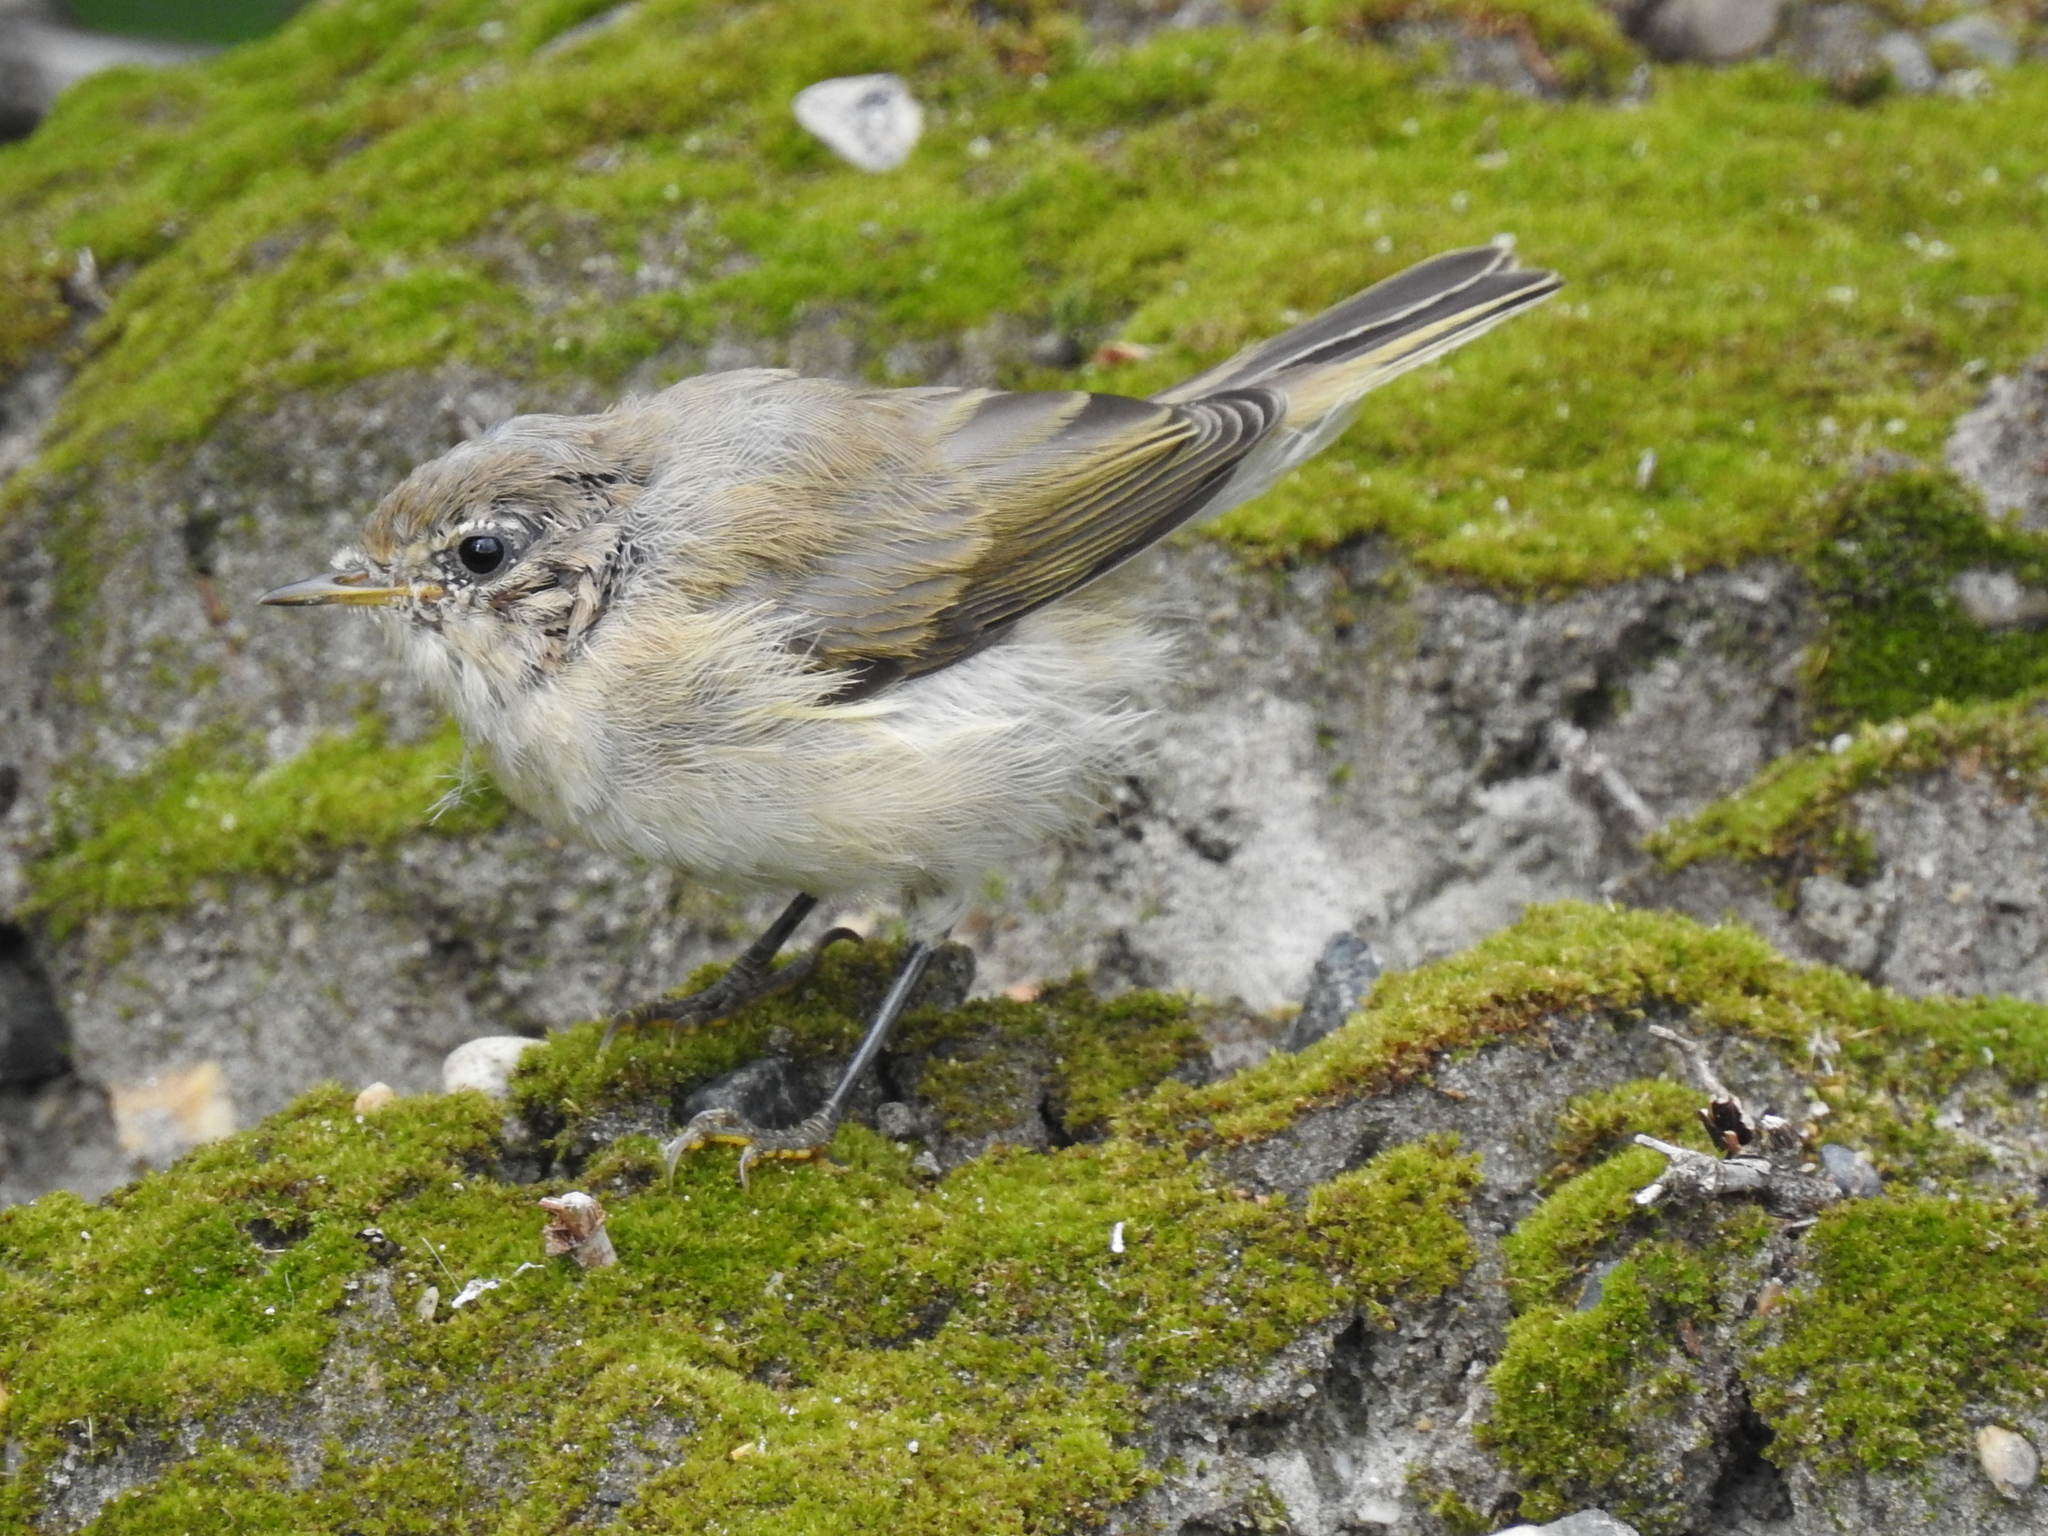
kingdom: Animalia
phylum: Chordata
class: Aves
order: Passeriformes
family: Phylloscopidae
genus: Phylloscopus
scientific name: Phylloscopus collybita
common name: Common chiffchaff
